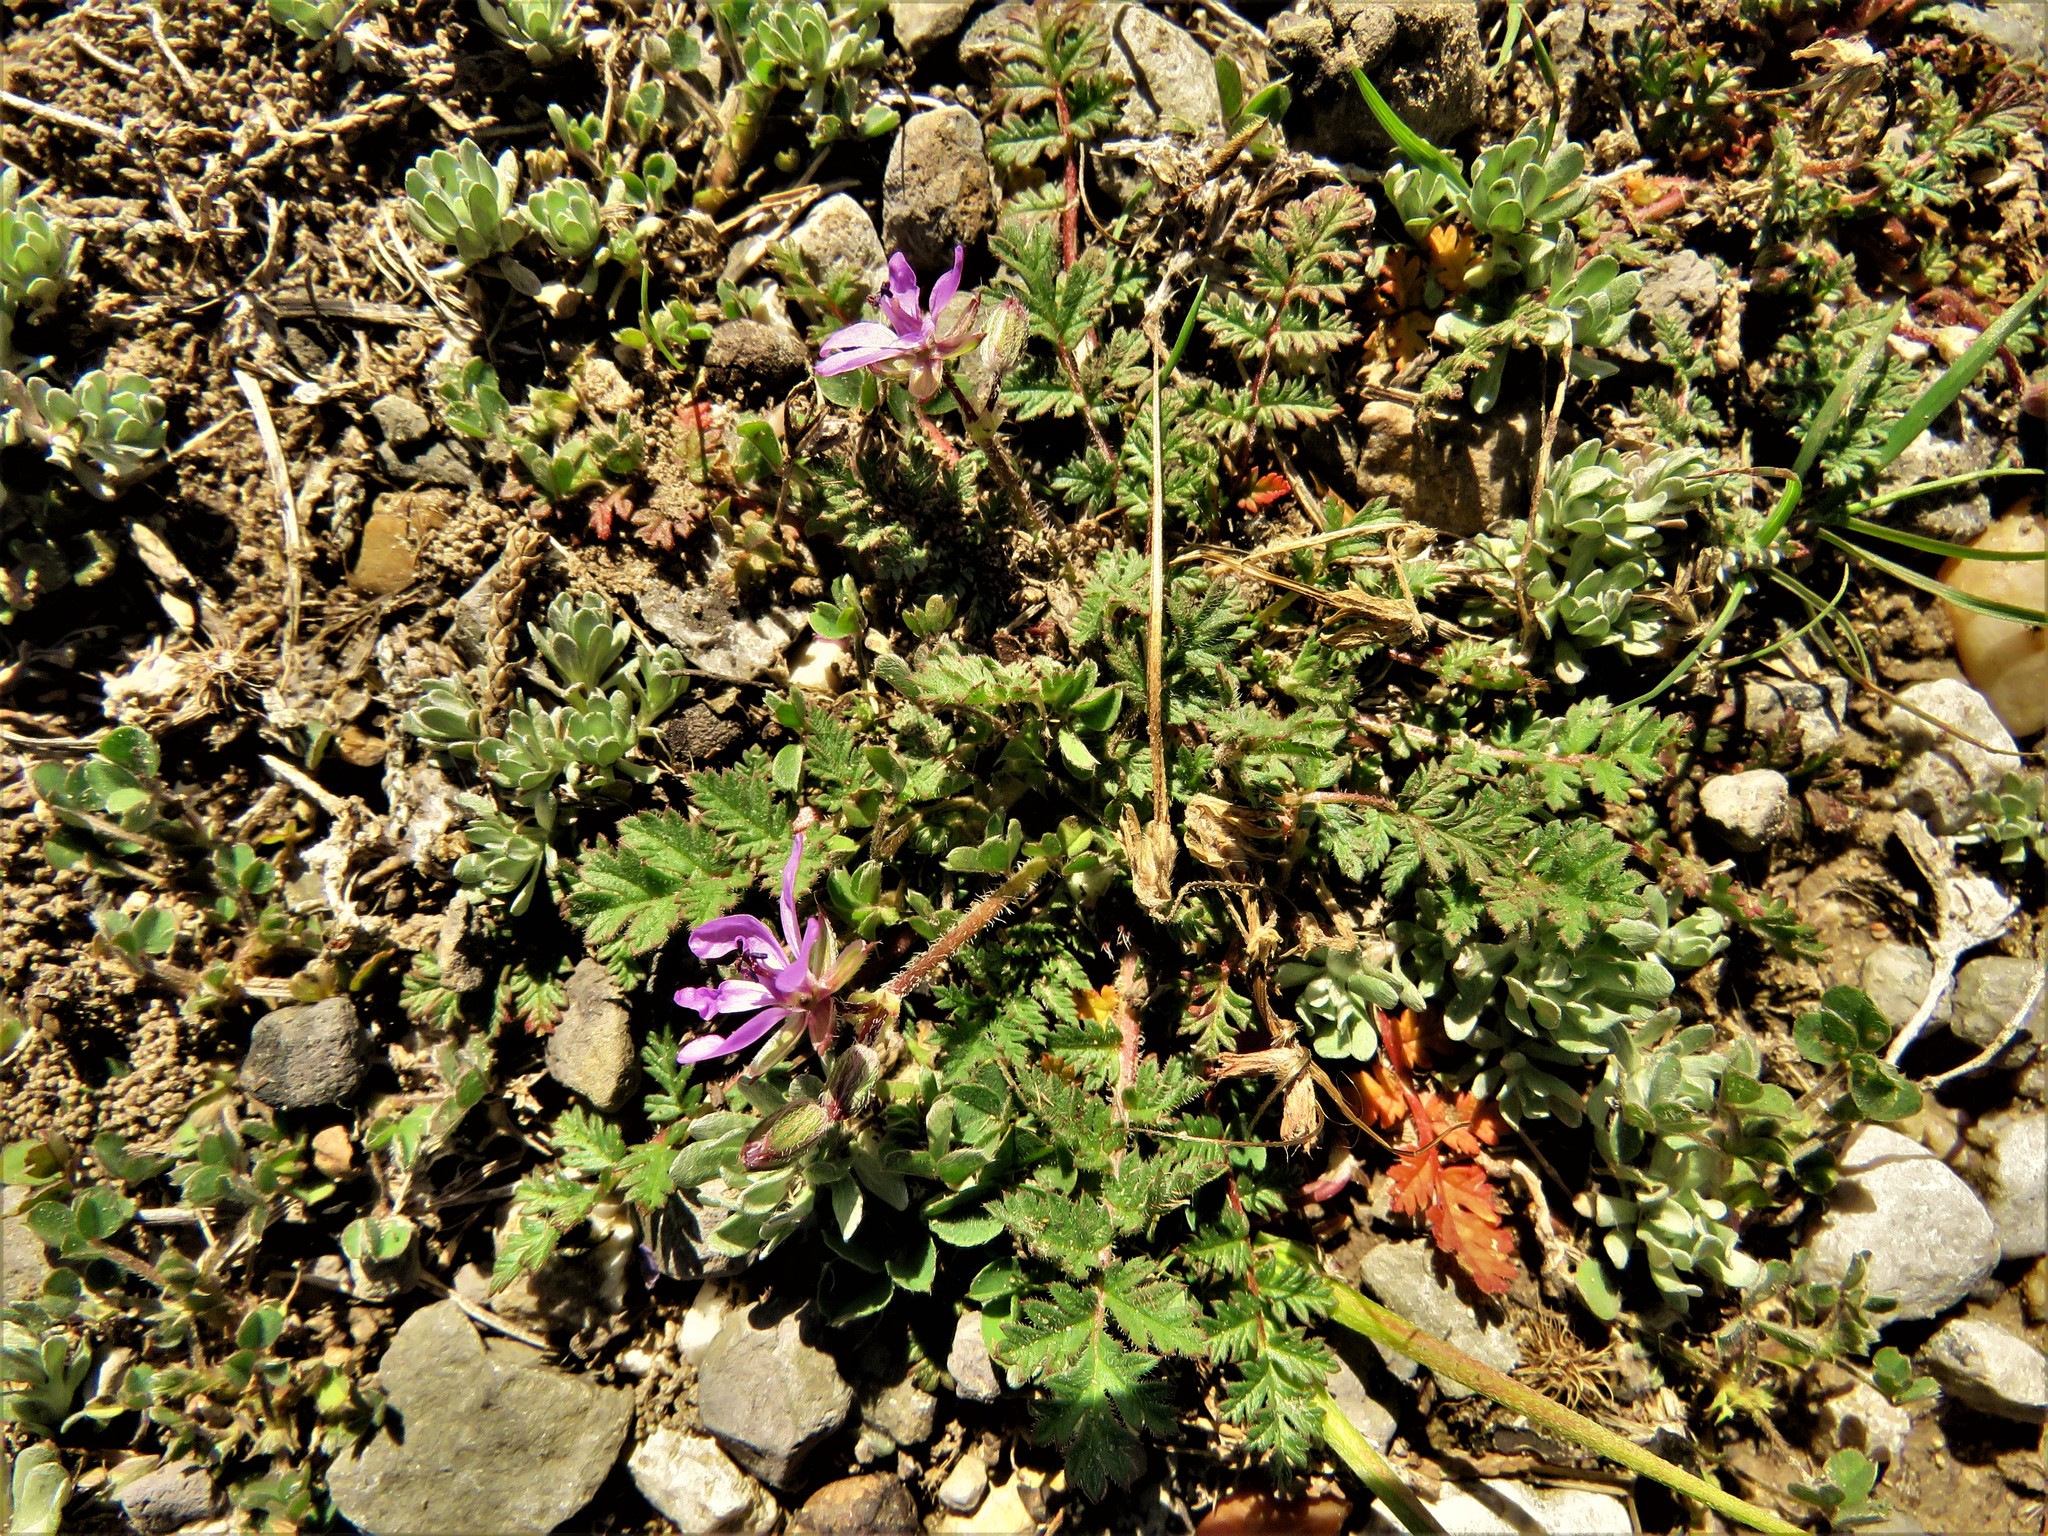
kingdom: Plantae
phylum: Tracheophyta
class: Magnoliopsida
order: Geraniales
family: Geraniaceae
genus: Erodium
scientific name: Erodium cicutarium
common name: Common stork's-bill
